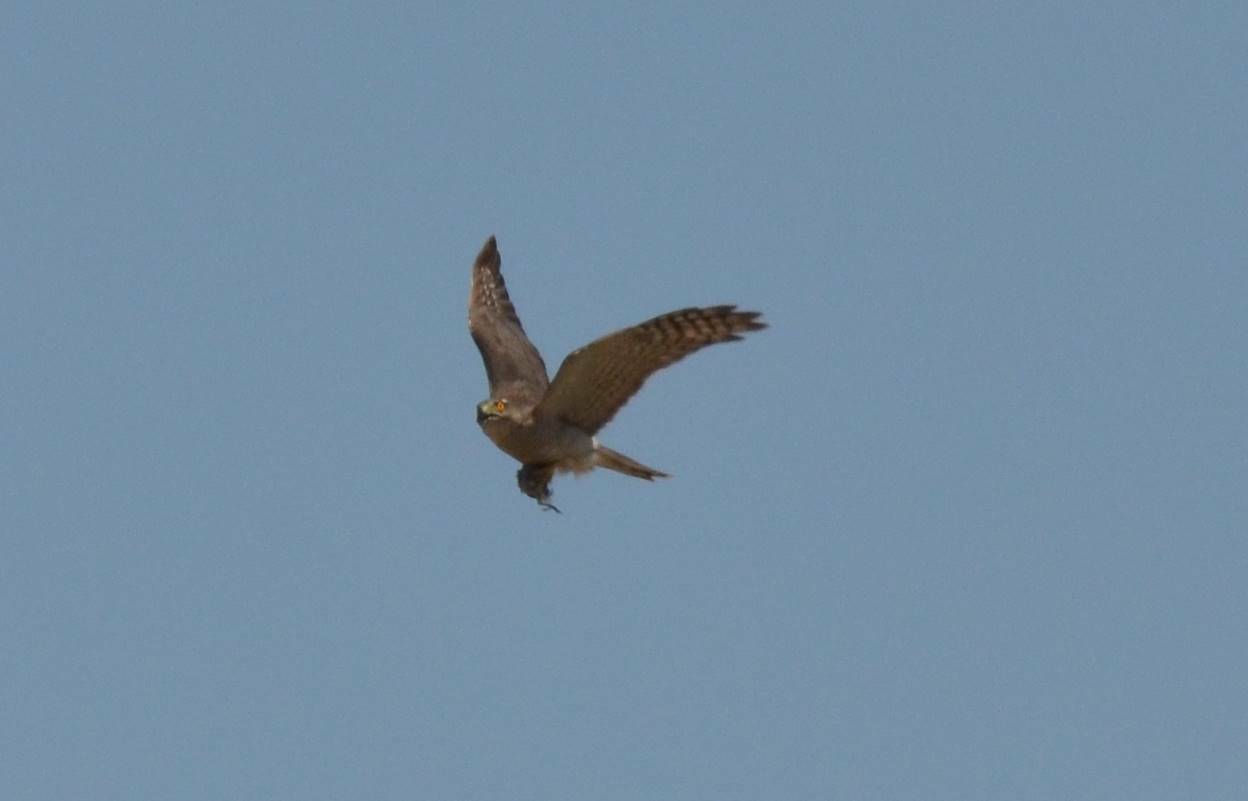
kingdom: Animalia
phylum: Chordata
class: Aves
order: Accipitriformes
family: Accipitridae
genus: Accipiter
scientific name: Accipiter nisus
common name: Eurasian sparrowhawk
